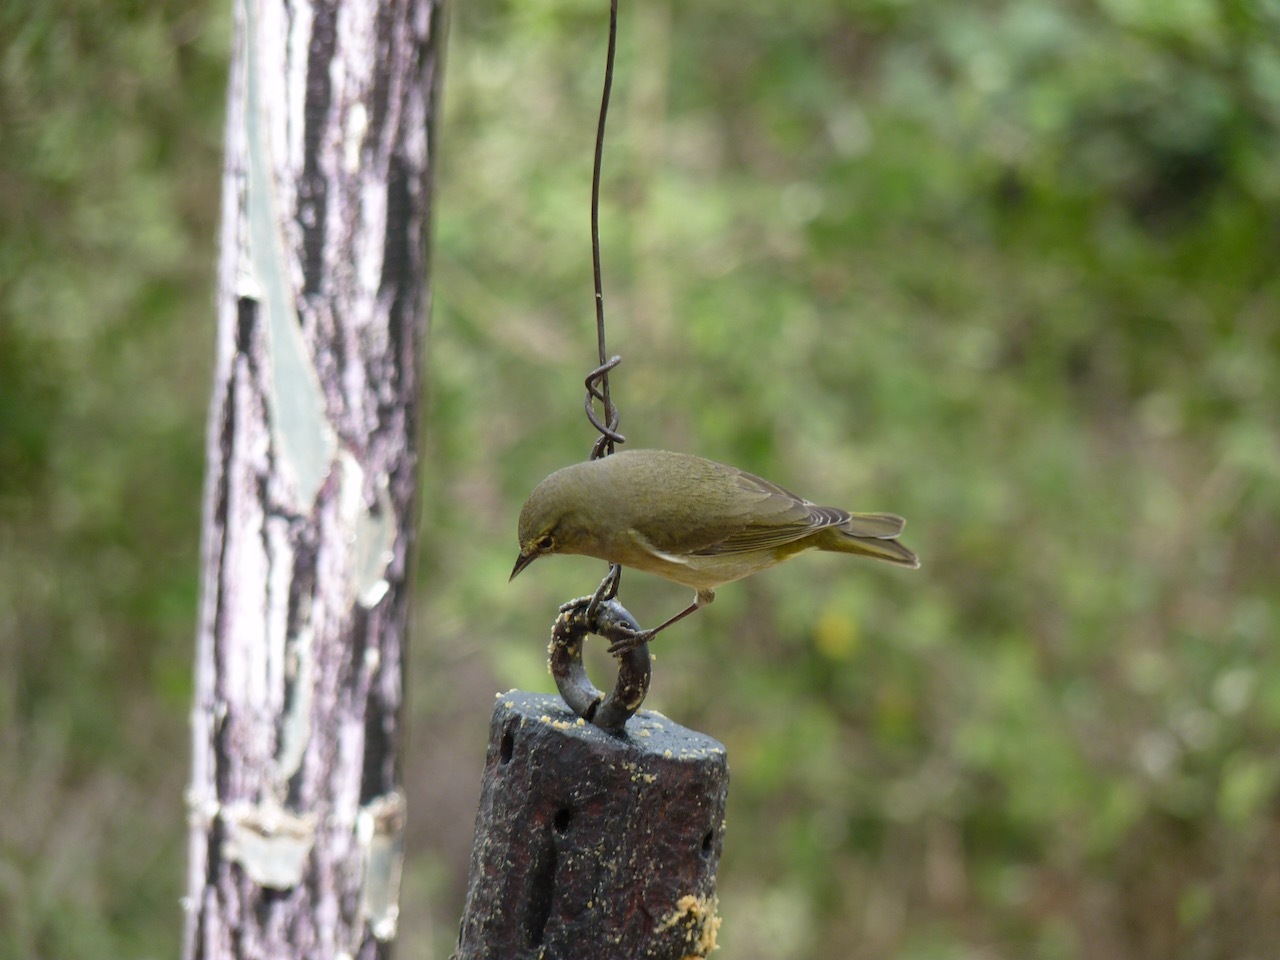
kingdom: Animalia
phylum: Chordata
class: Aves
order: Passeriformes
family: Parulidae
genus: Leiothlypis
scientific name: Leiothlypis celata
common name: Orange-crowned warbler
